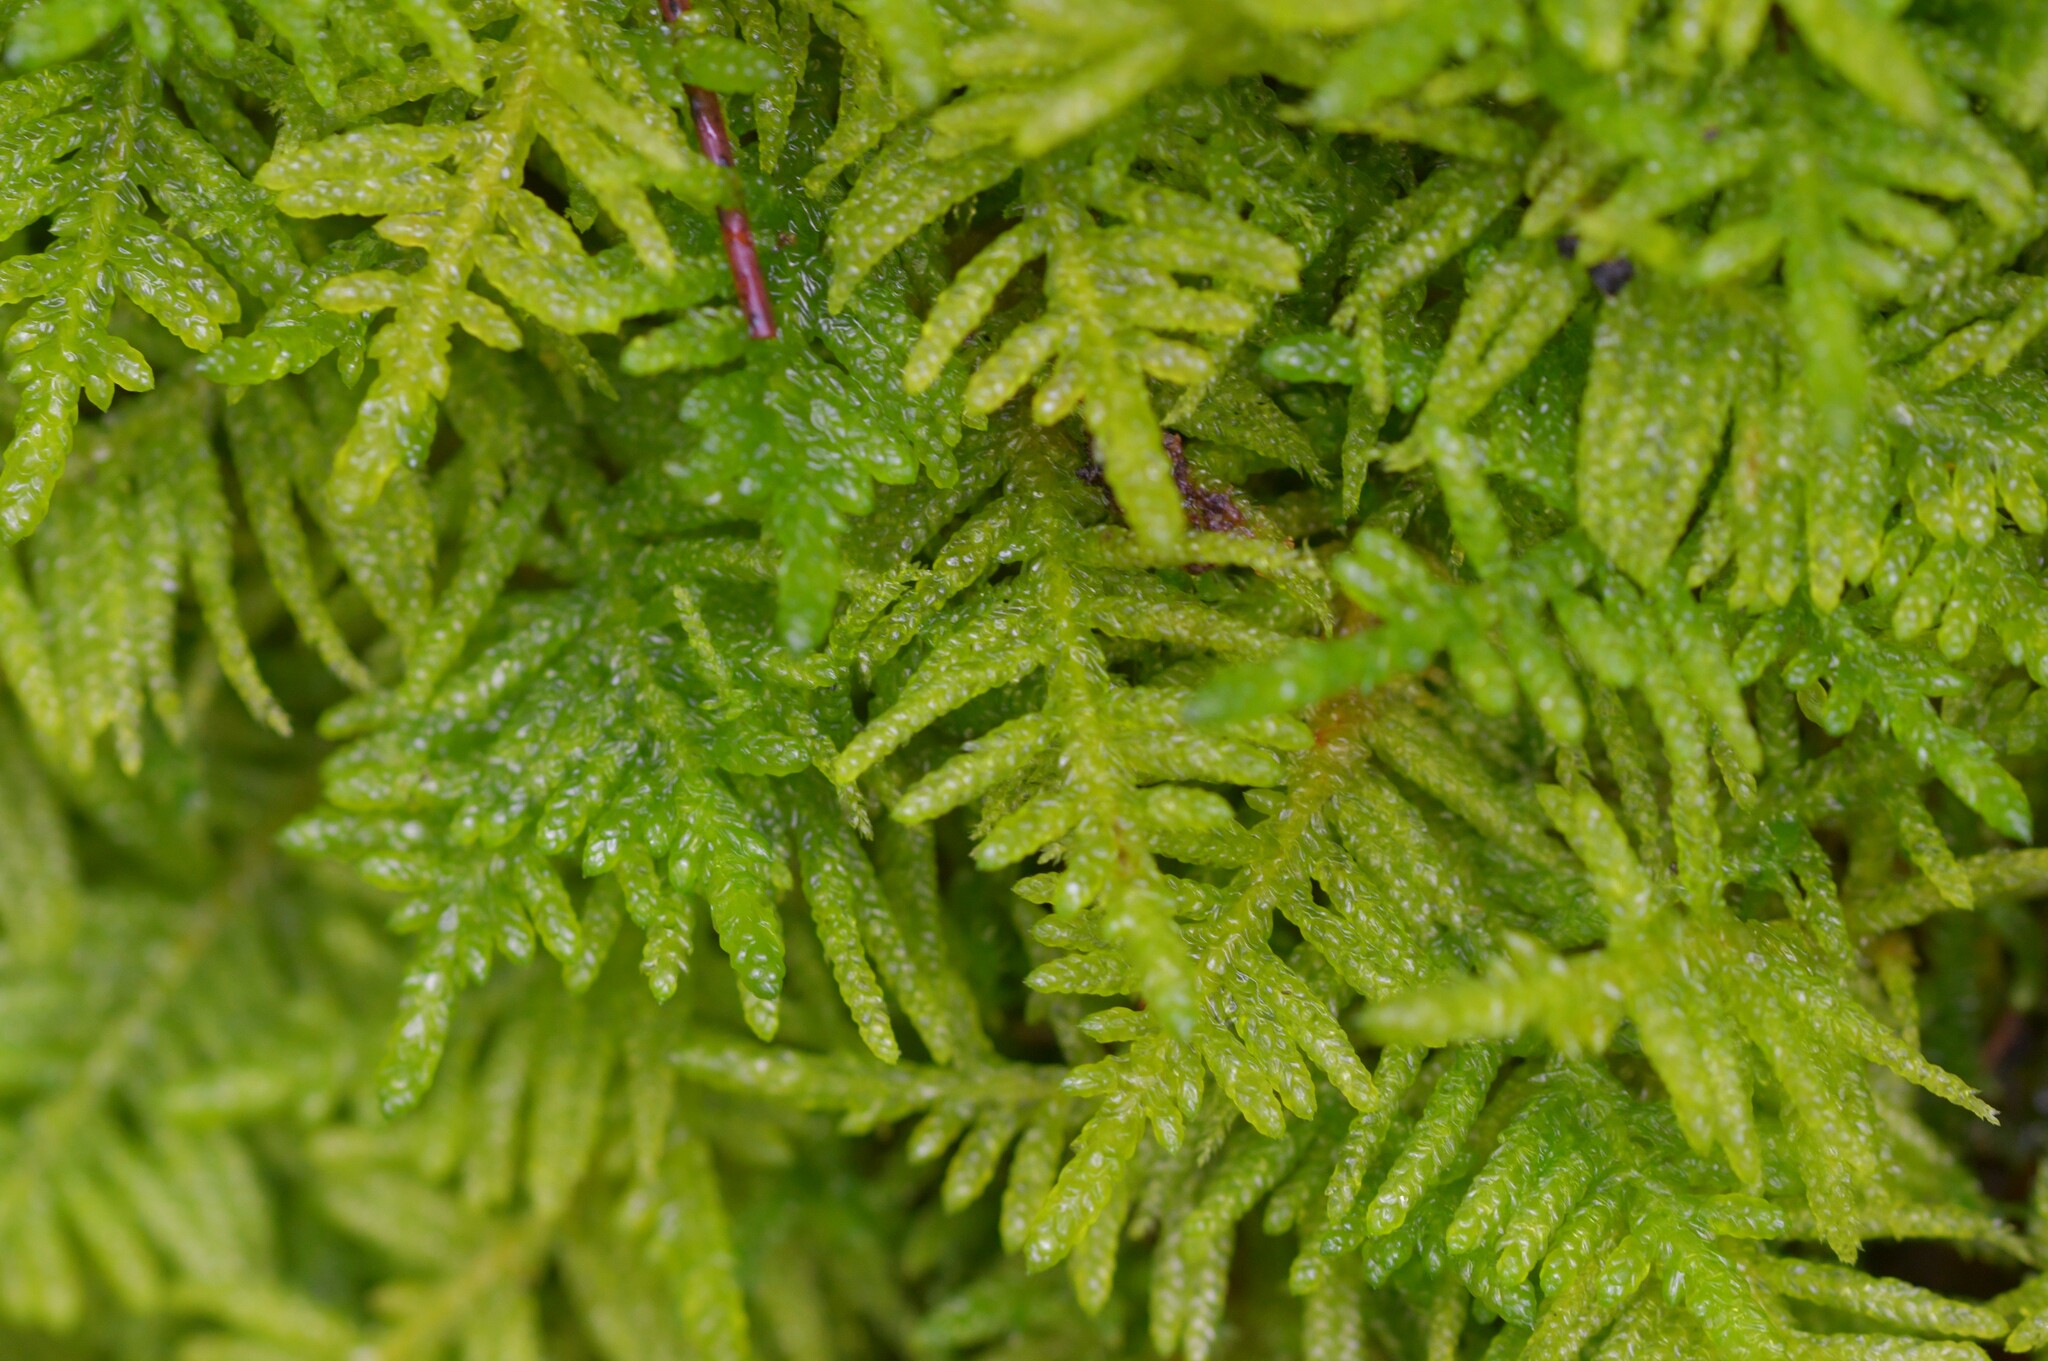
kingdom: Plantae
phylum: Bryophyta
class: Bryopsida
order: Hypnales
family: Brachytheciaceae
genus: Pseudoscleropodium
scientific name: Pseudoscleropodium purum
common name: Neat feather-moss
